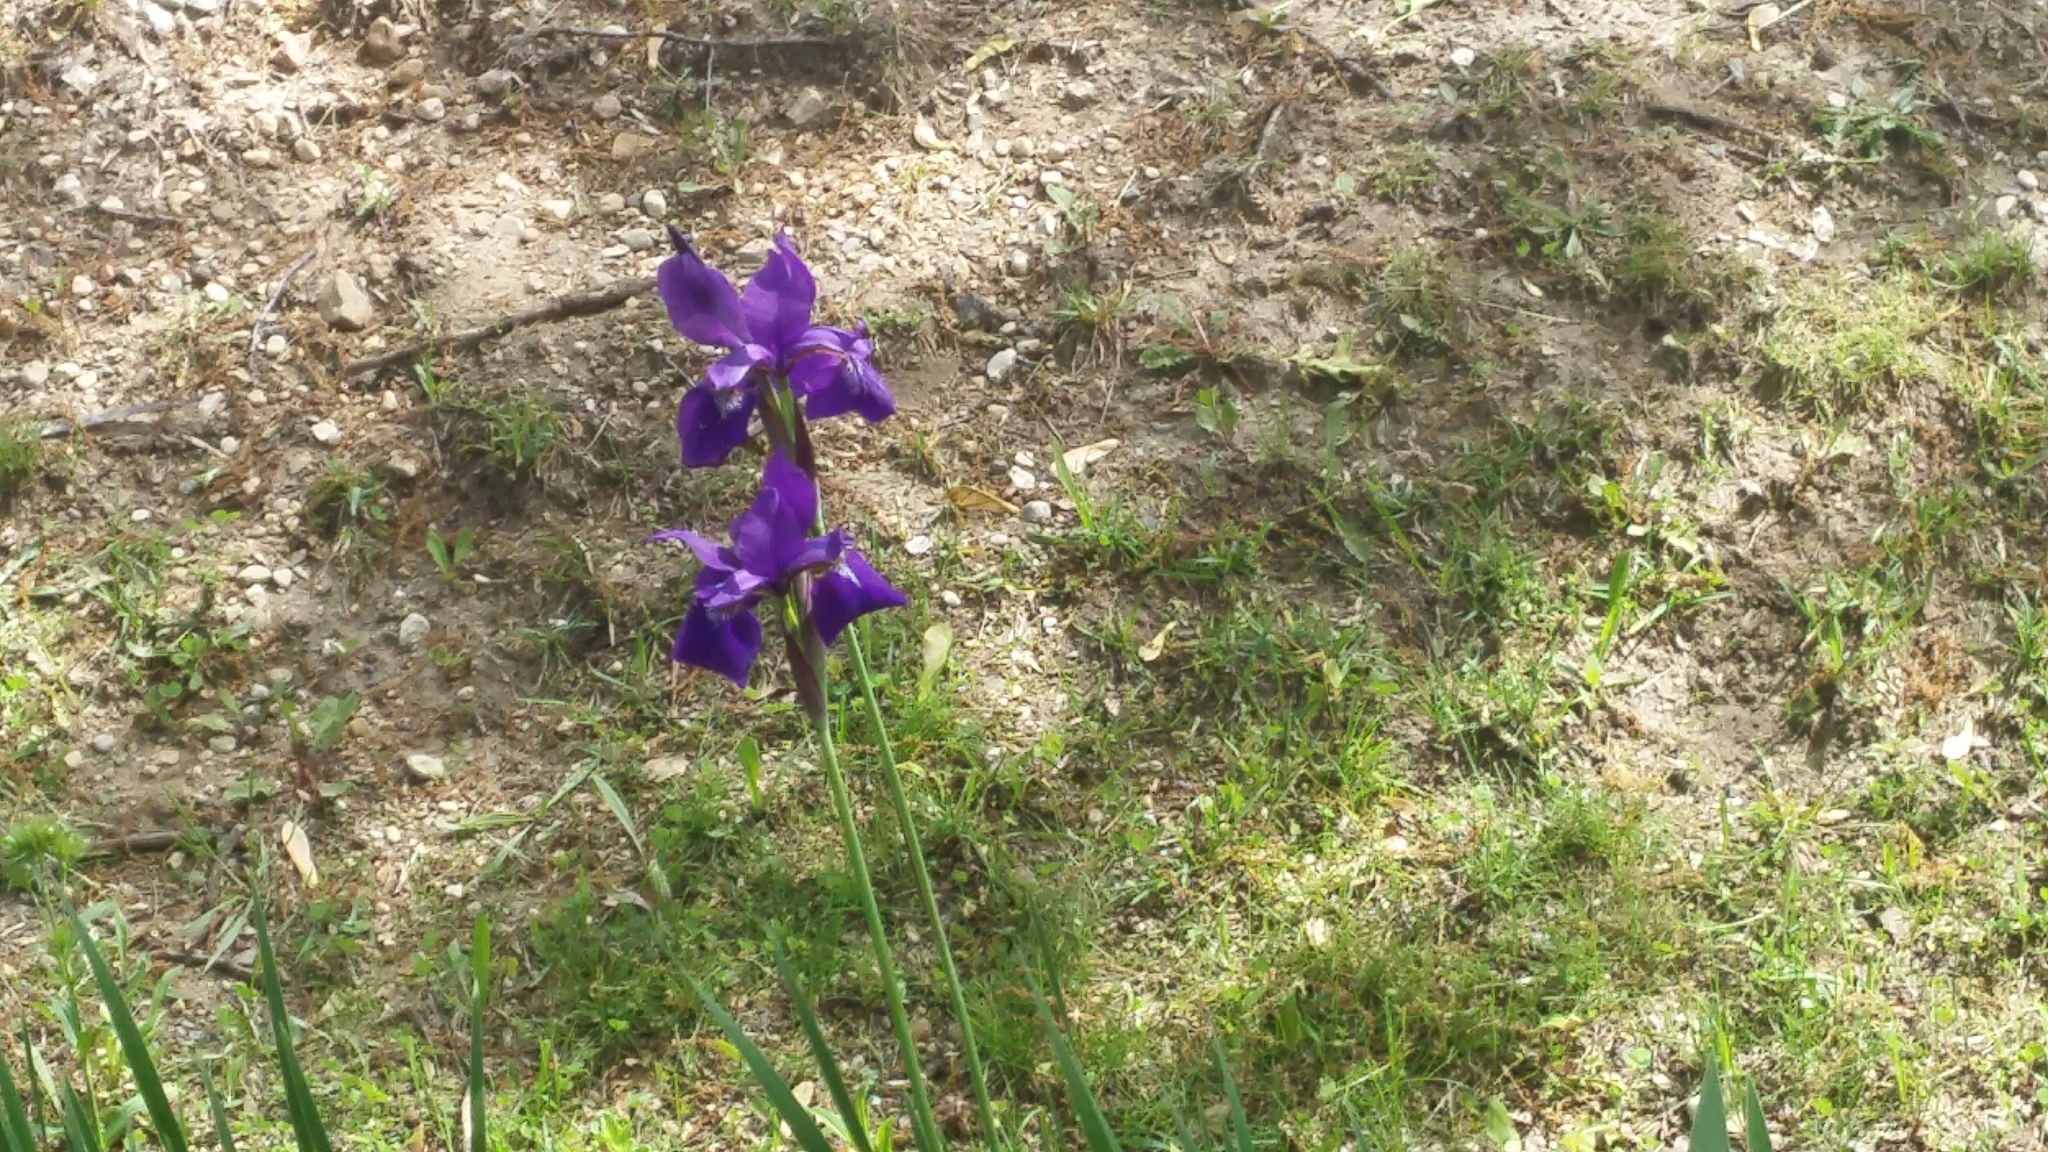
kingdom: Plantae
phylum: Tracheophyta
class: Liliopsida
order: Asparagales
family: Iridaceae
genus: Iris
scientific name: Iris sanguinea
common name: Blood iris
